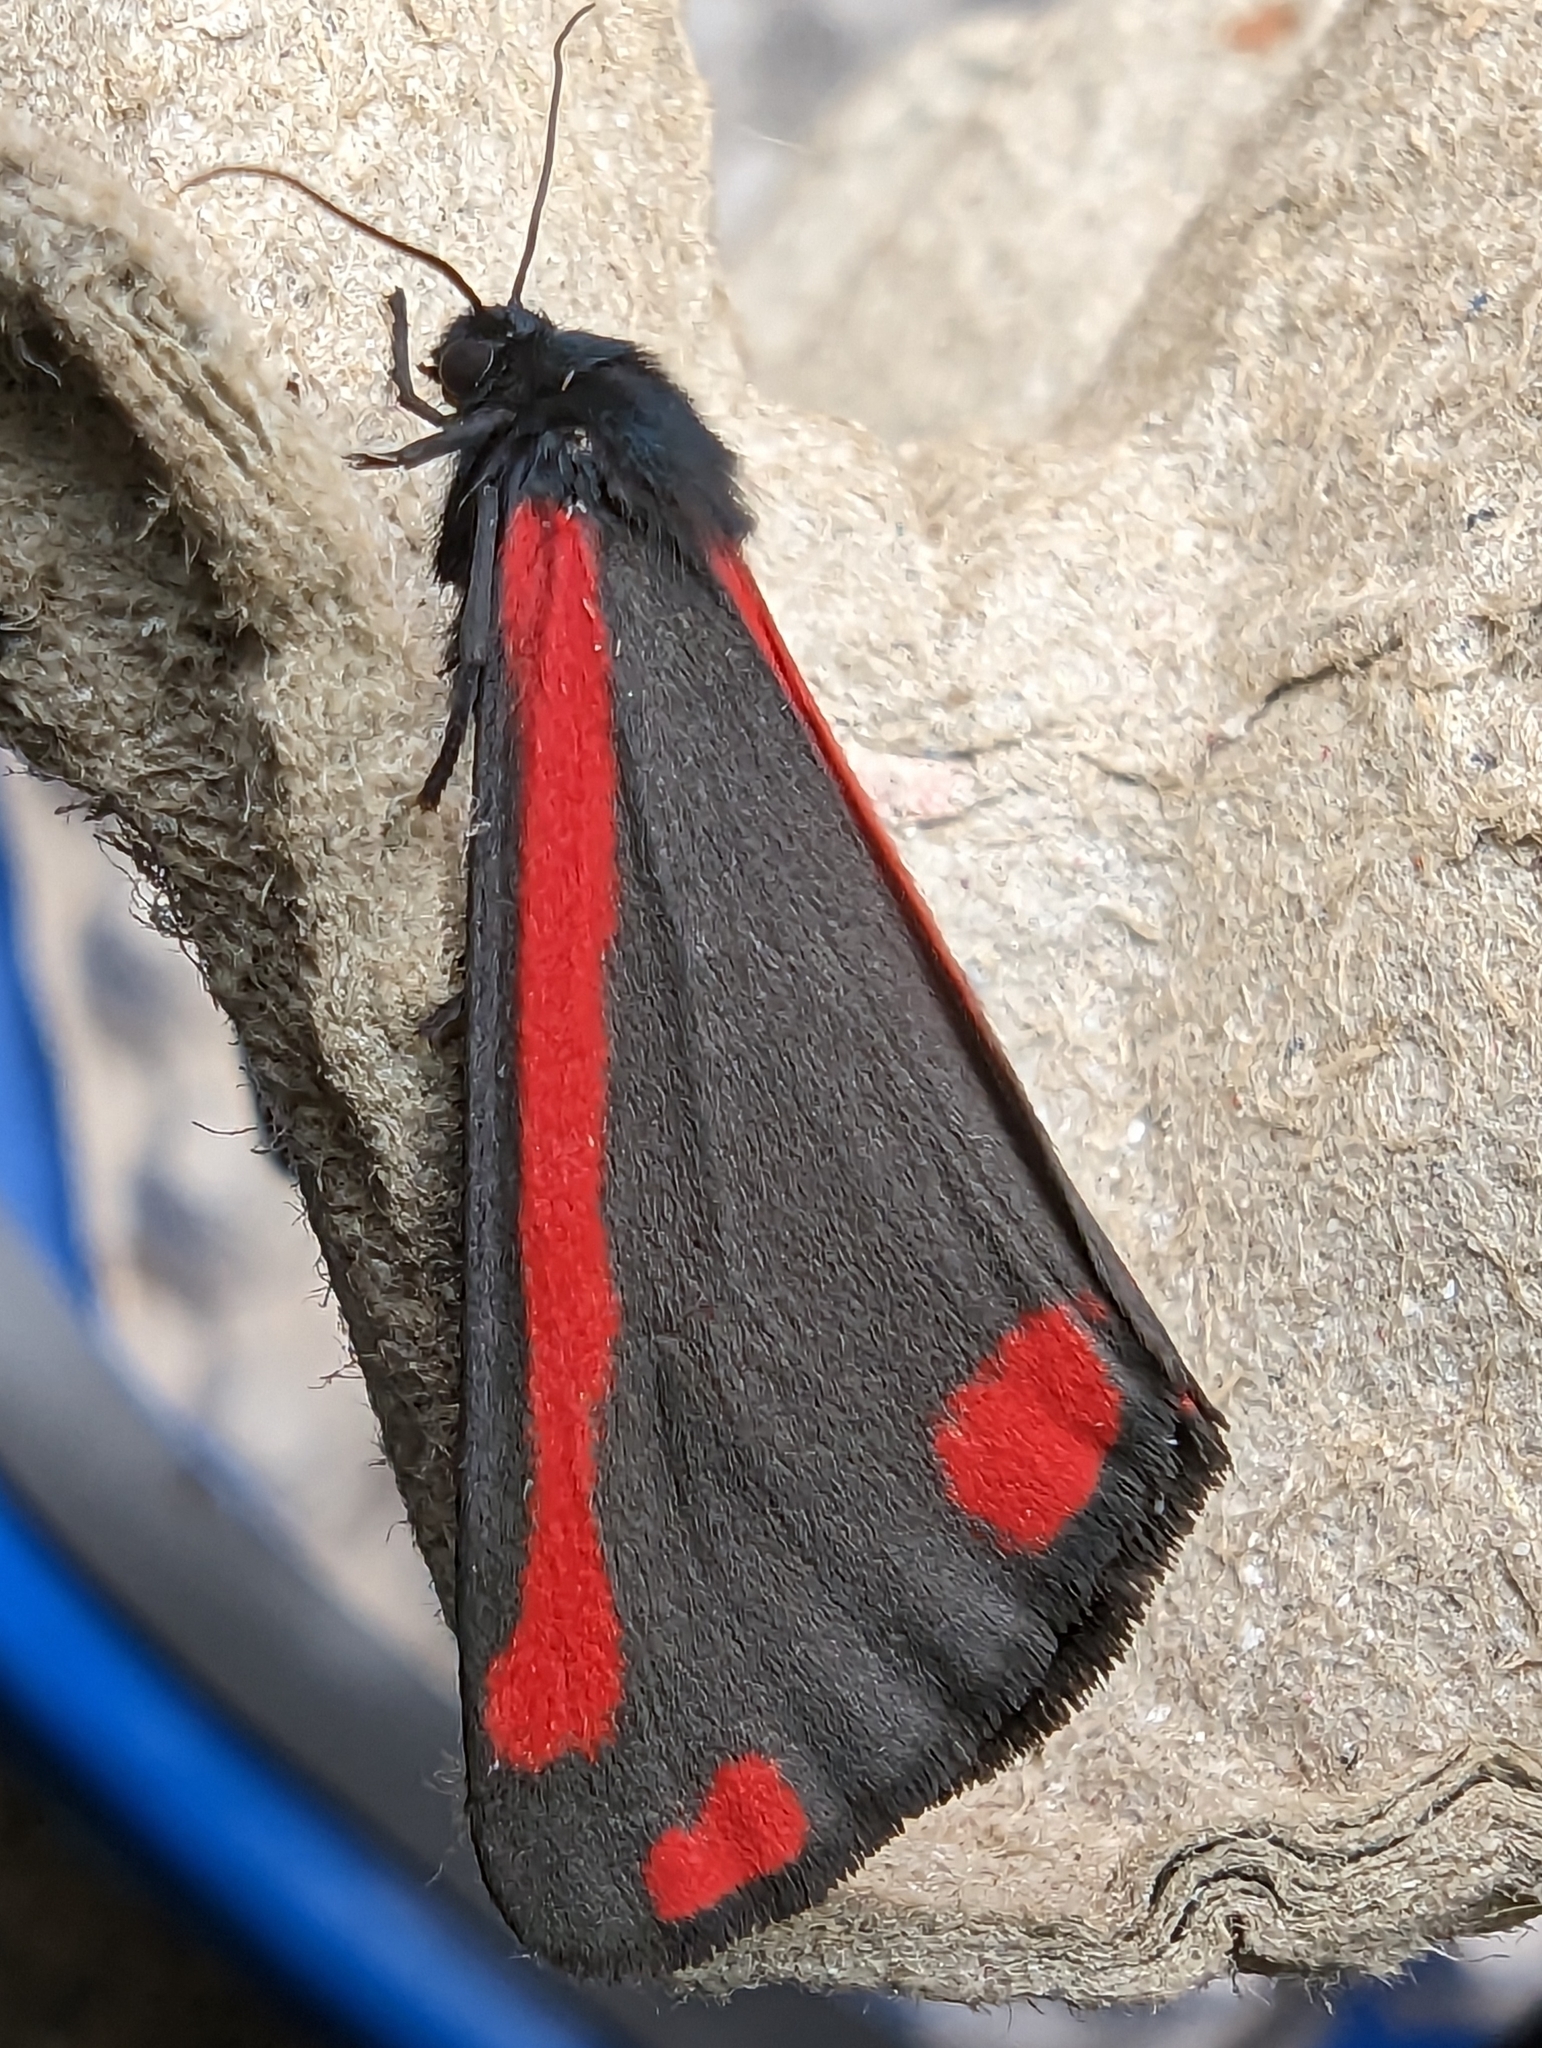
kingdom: Animalia
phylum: Arthropoda
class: Insecta
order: Lepidoptera
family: Erebidae
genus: Tyria
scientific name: Tyria jacobaeae
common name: Cinnabar
